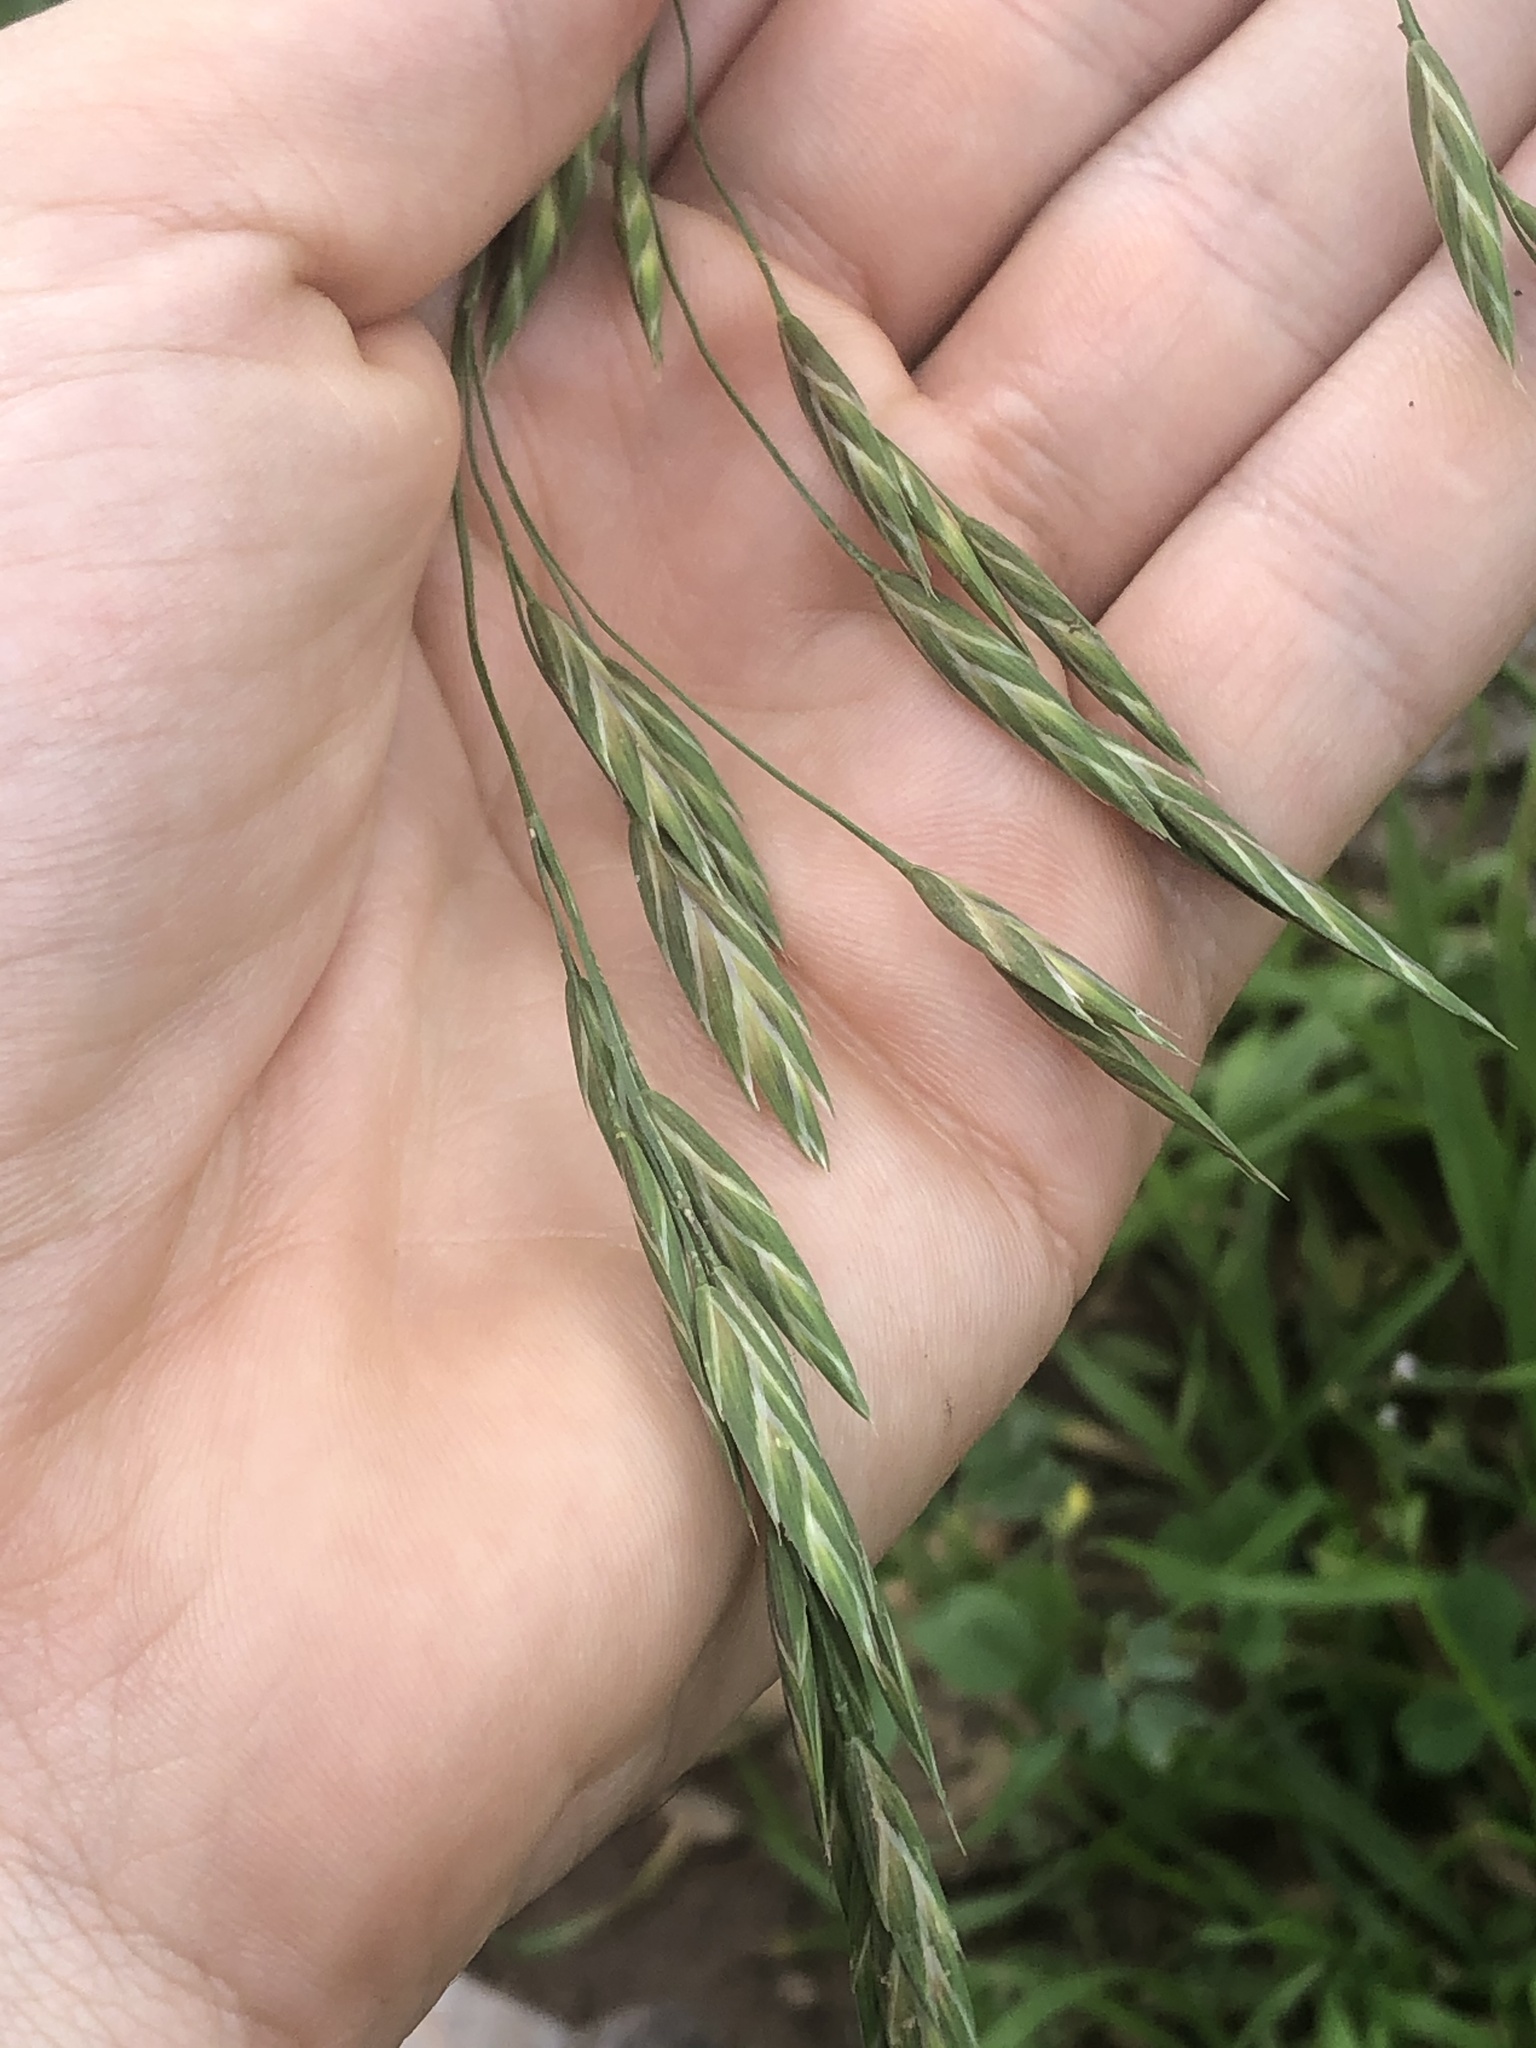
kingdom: Plantae
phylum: Tracheophyta
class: Liliopsida
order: Poales
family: Poaceae
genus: Bromus
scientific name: Bromus catharticus
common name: Rescuegrass
